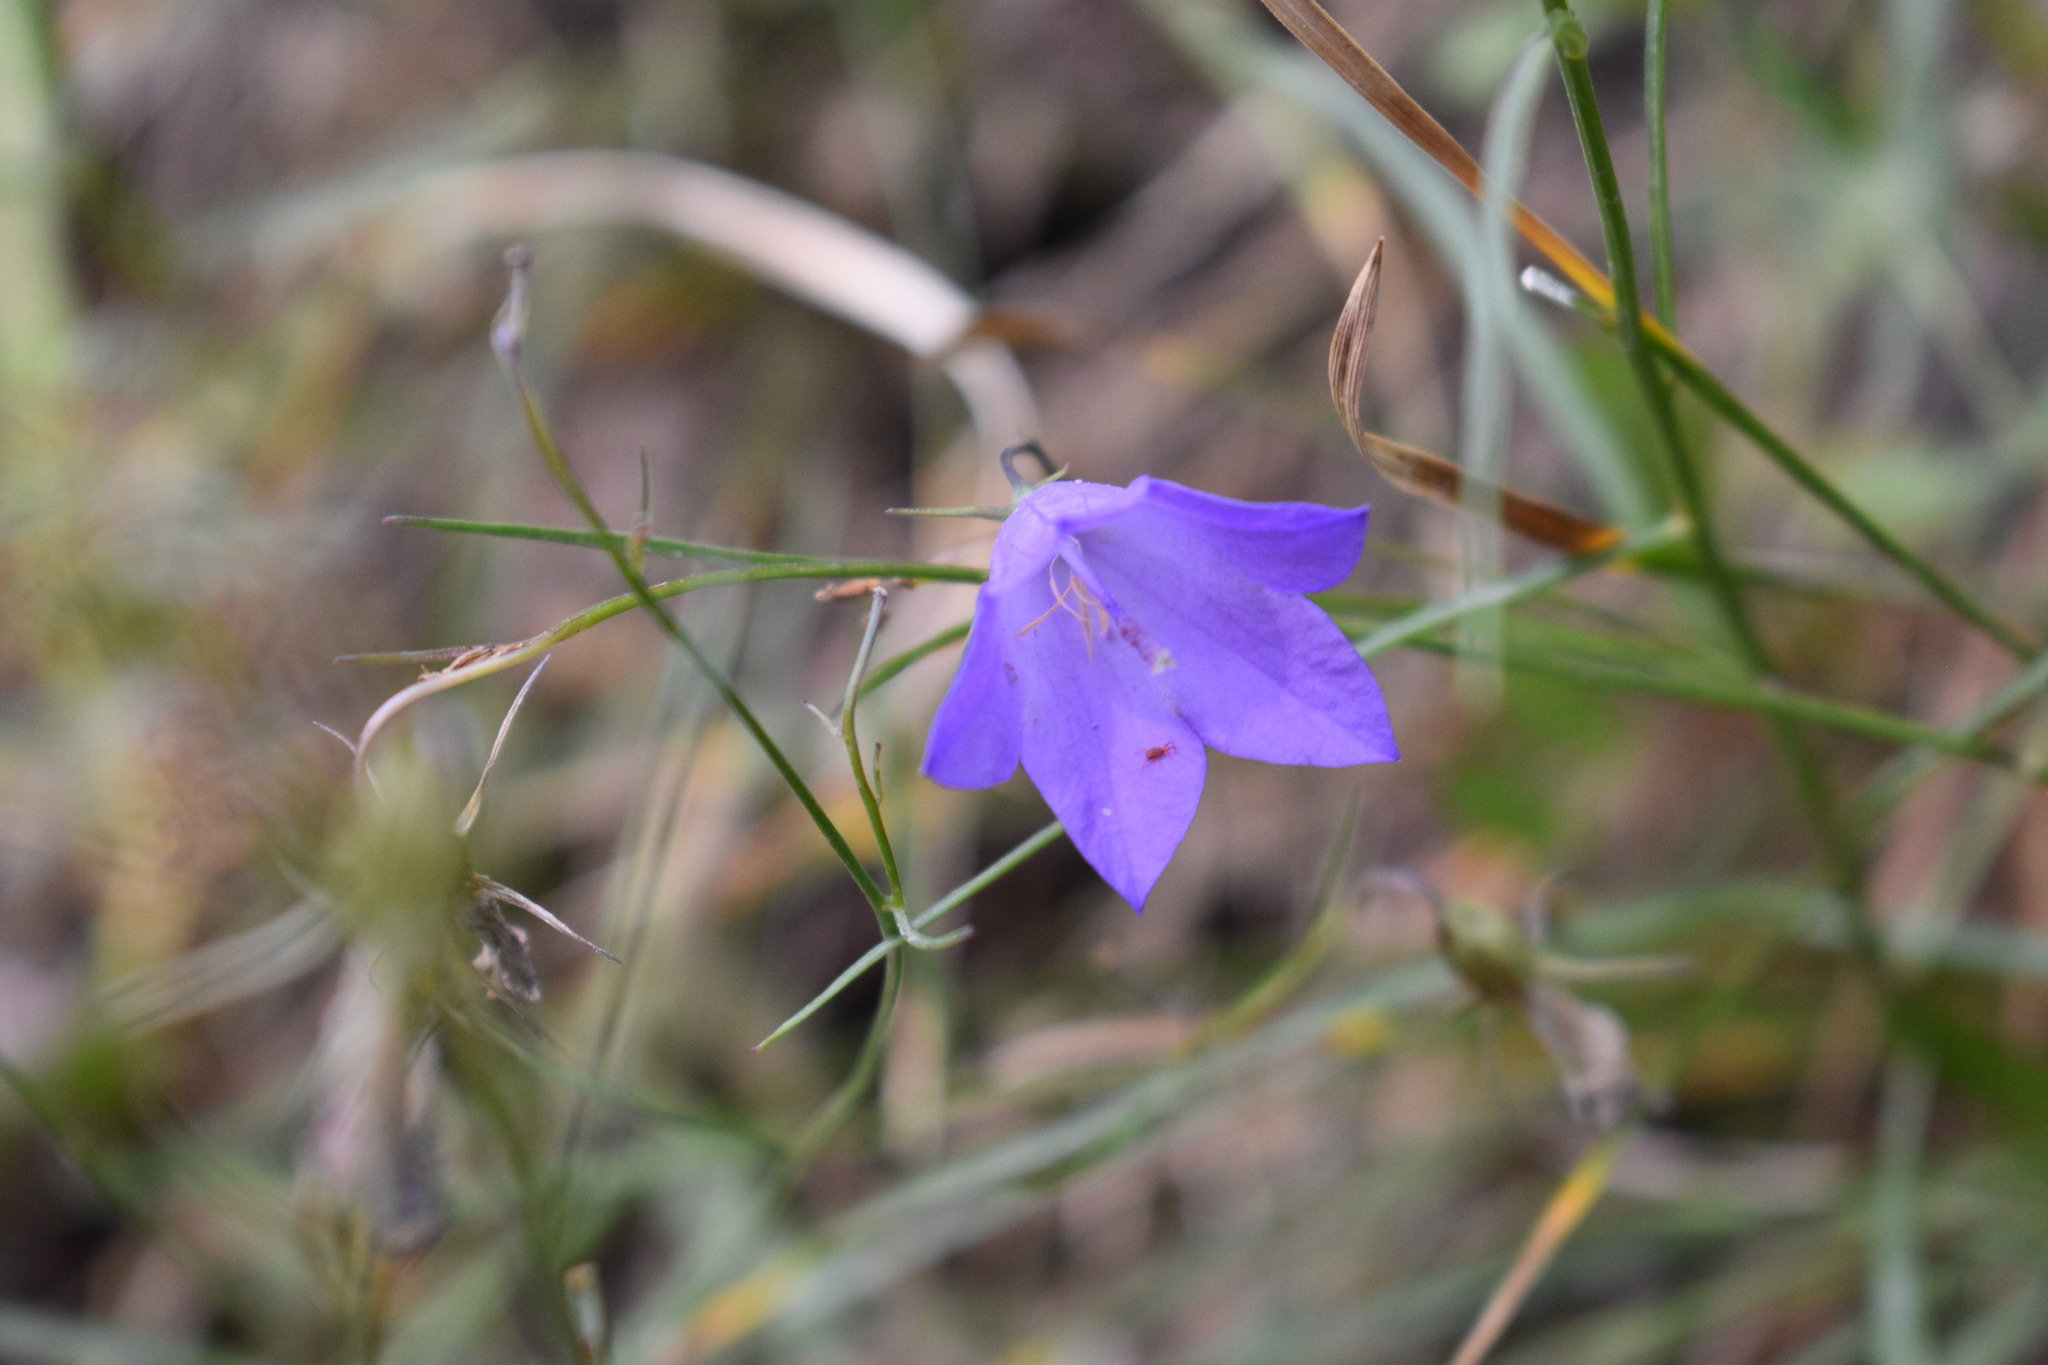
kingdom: Plantae
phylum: Tracheophyta
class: Magnoliopsida
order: Asterales
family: Campanulaceae
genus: Campanula
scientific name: Campanula petiolata
